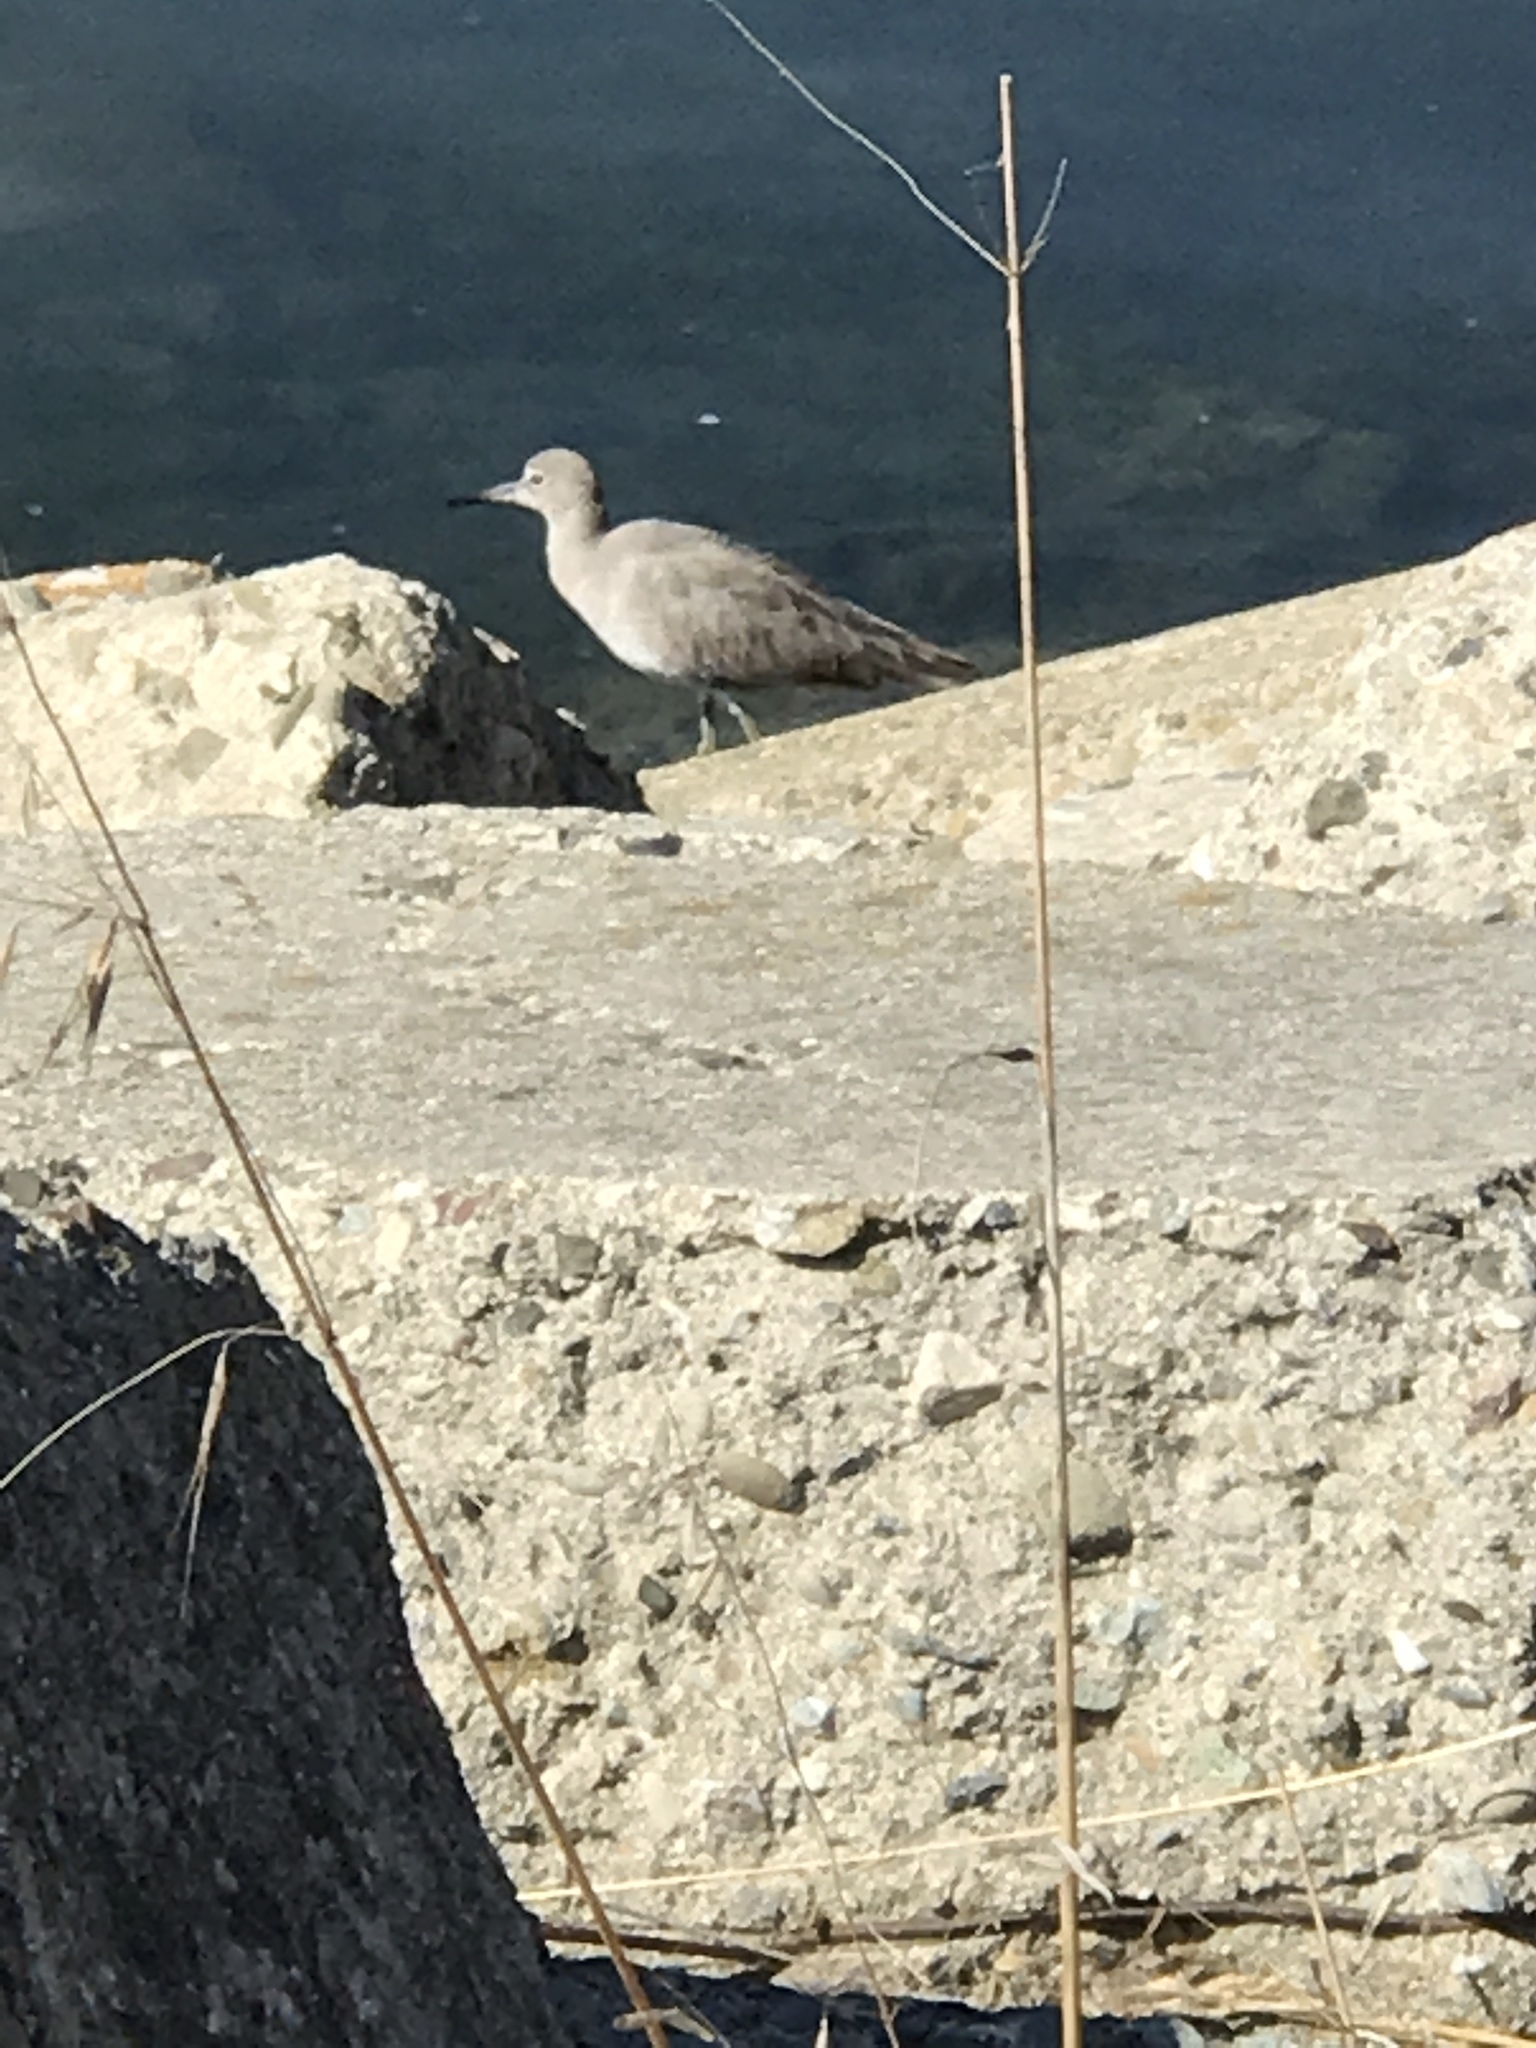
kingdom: Animalia
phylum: Chordata
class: Aves
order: Charadriiformes
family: Scolopacidae
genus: Tringa
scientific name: Tringa semipalmata
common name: Willet
